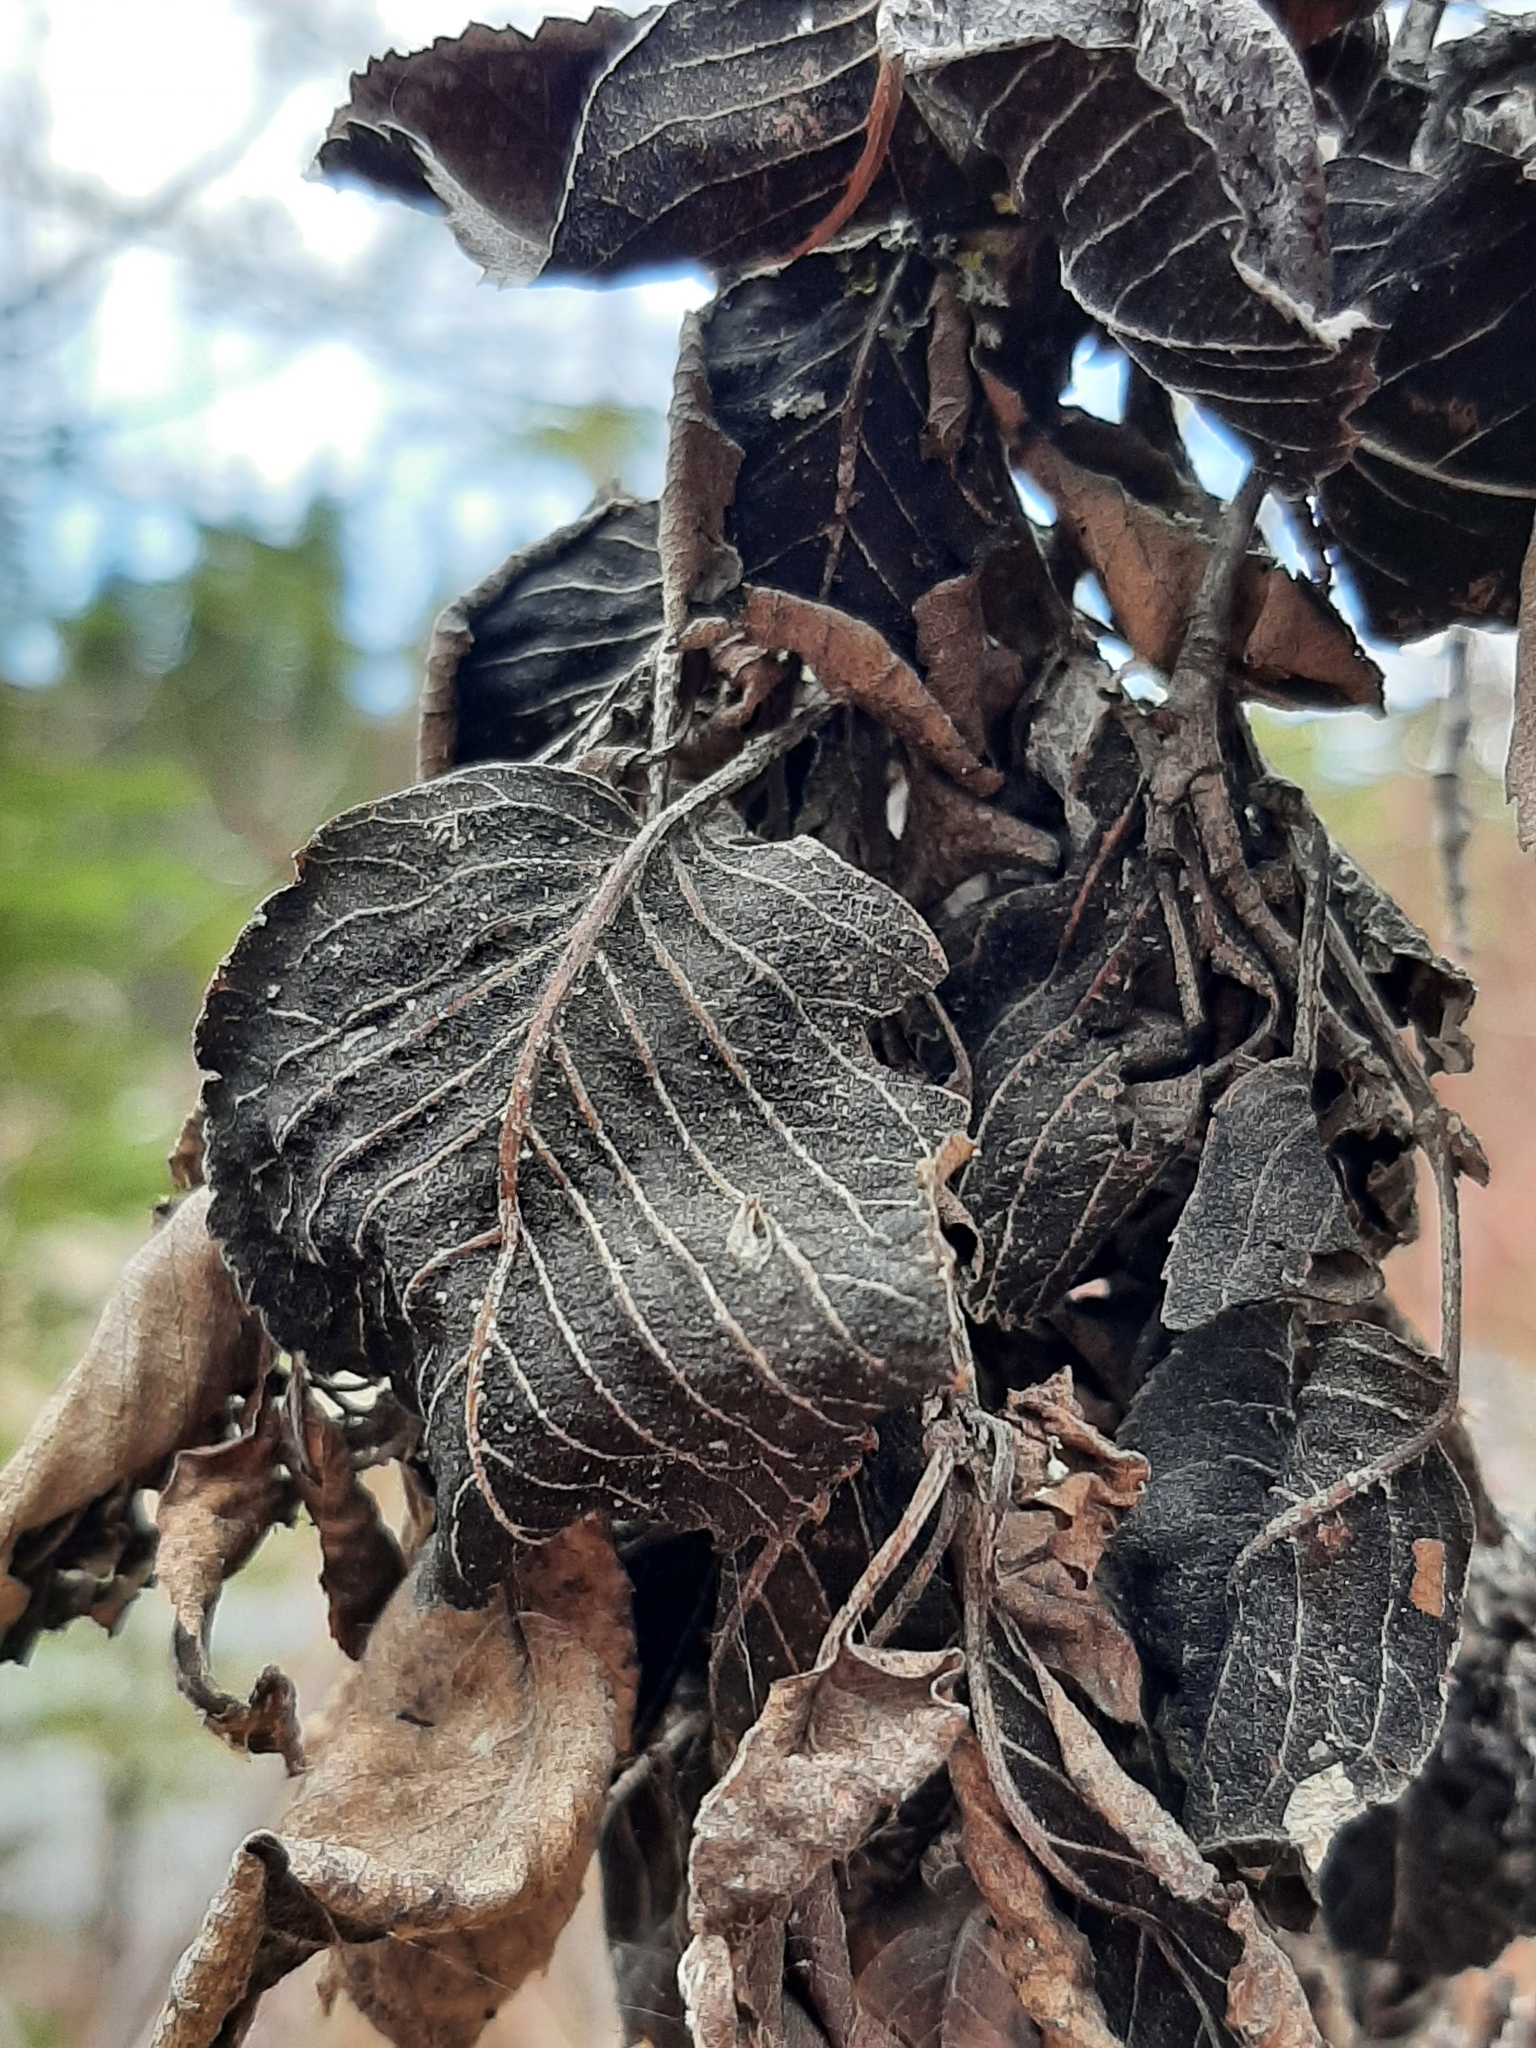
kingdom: Fungi
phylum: Ascomycota
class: Dothideomycetes
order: Venturiales
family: Venturiaceae
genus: Apiosporina
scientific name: Apiosporina collinsii
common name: Black leaf
